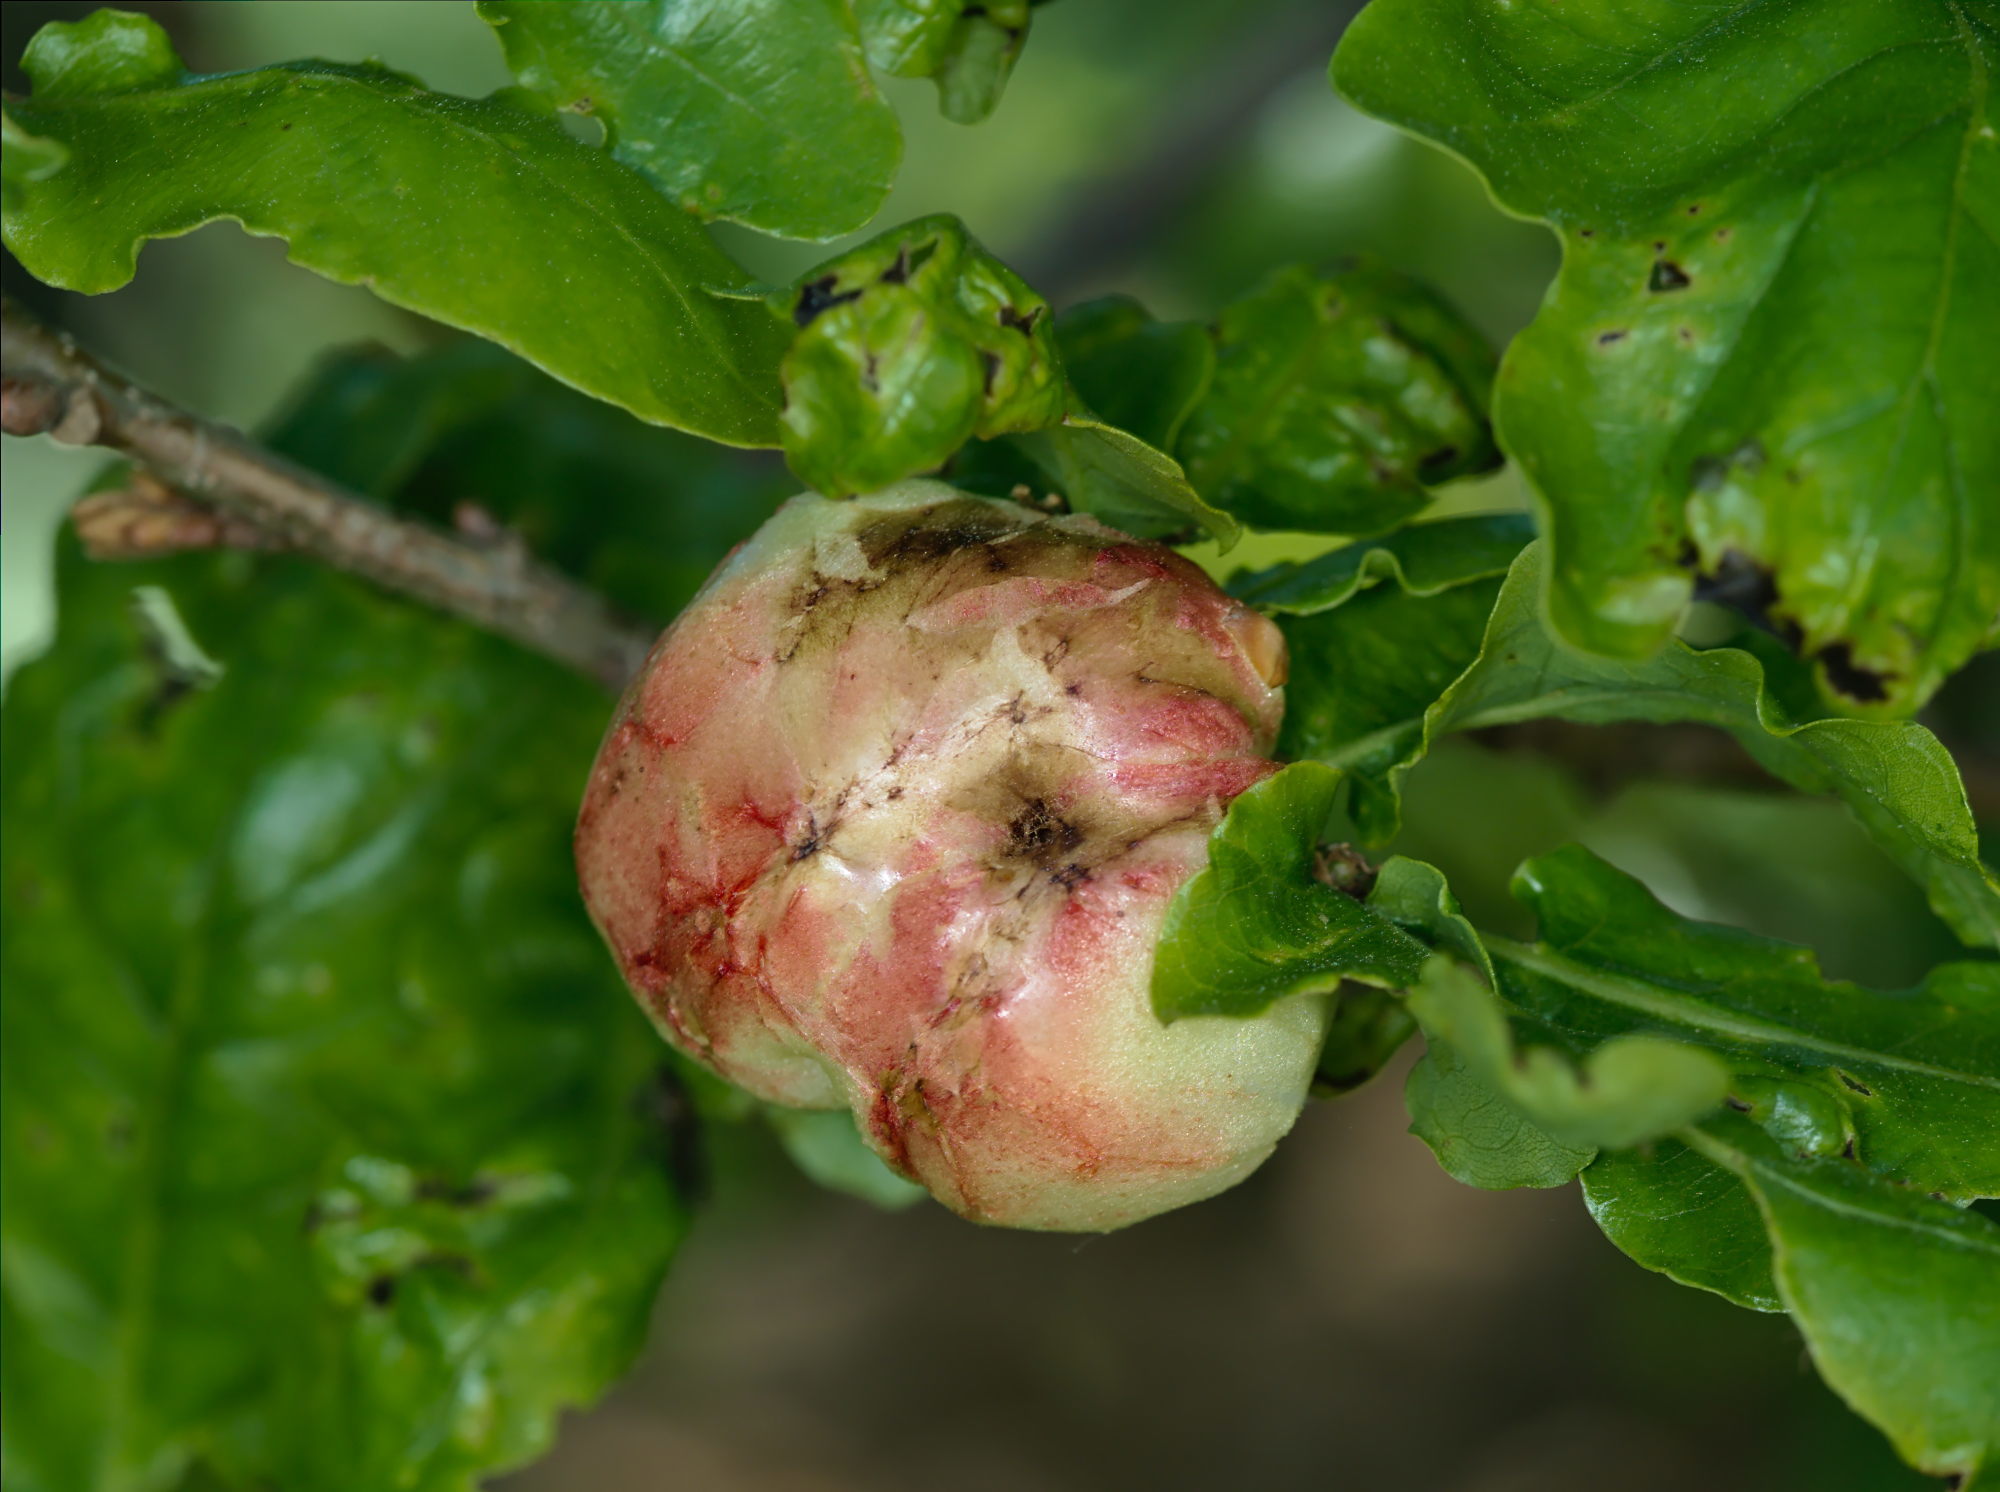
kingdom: Animalia
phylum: Arthropoda
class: Insecta
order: Hymenoptera
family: Cynipidae
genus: Biorhiza
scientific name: Biorhiza pallida
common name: Oak apple
